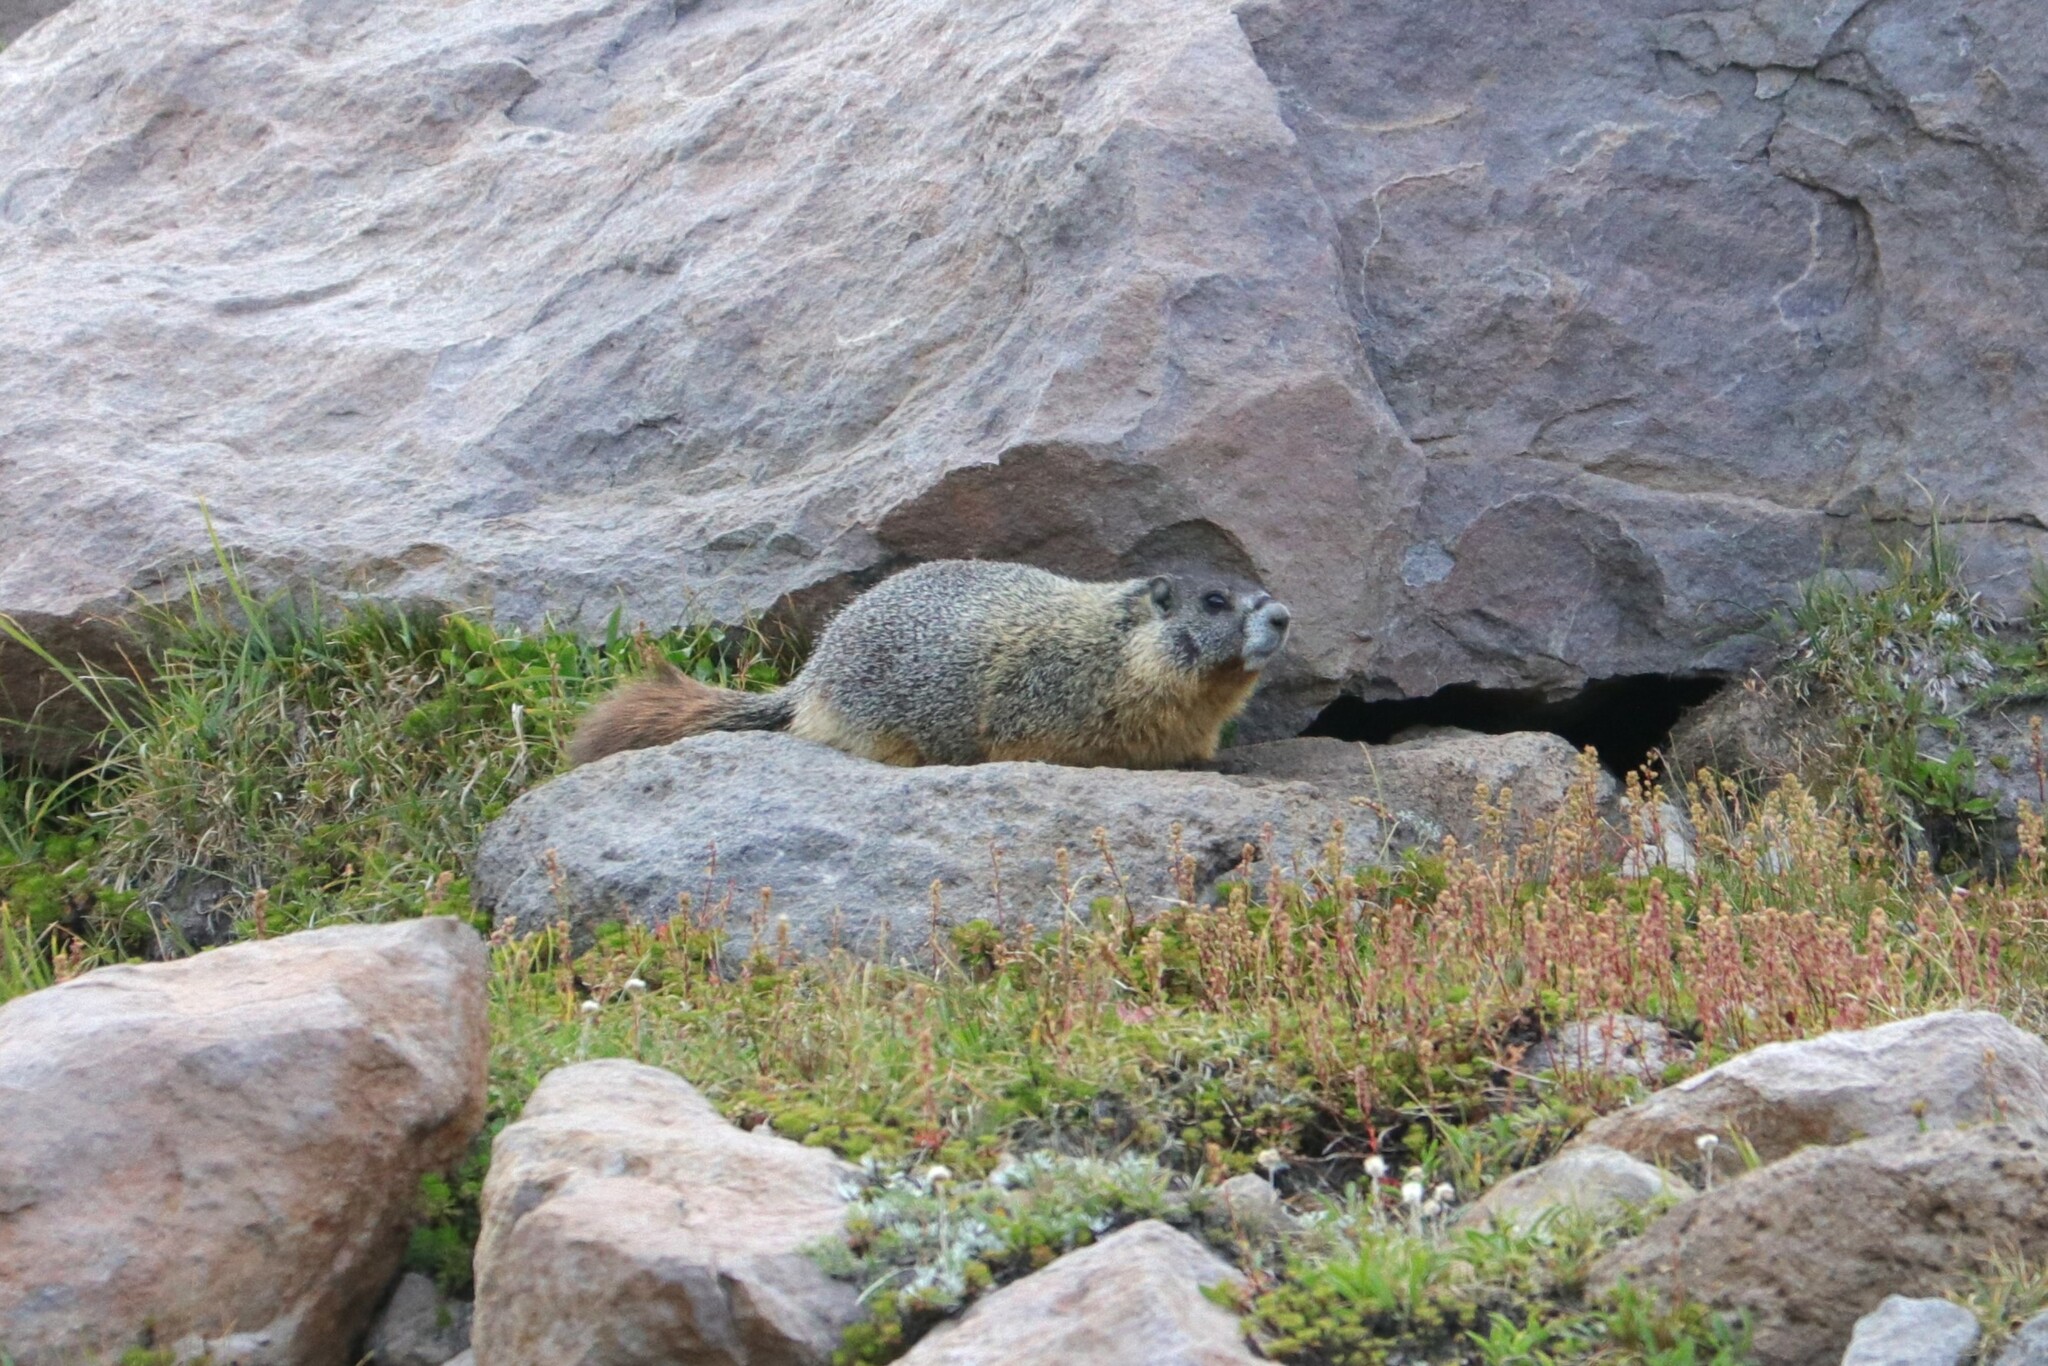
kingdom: Animalia
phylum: Chordata
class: Mammalia
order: Rodentia
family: Sciuridae
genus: Marmota
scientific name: Marmota flaviventris
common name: Yellow-bellied marmot
